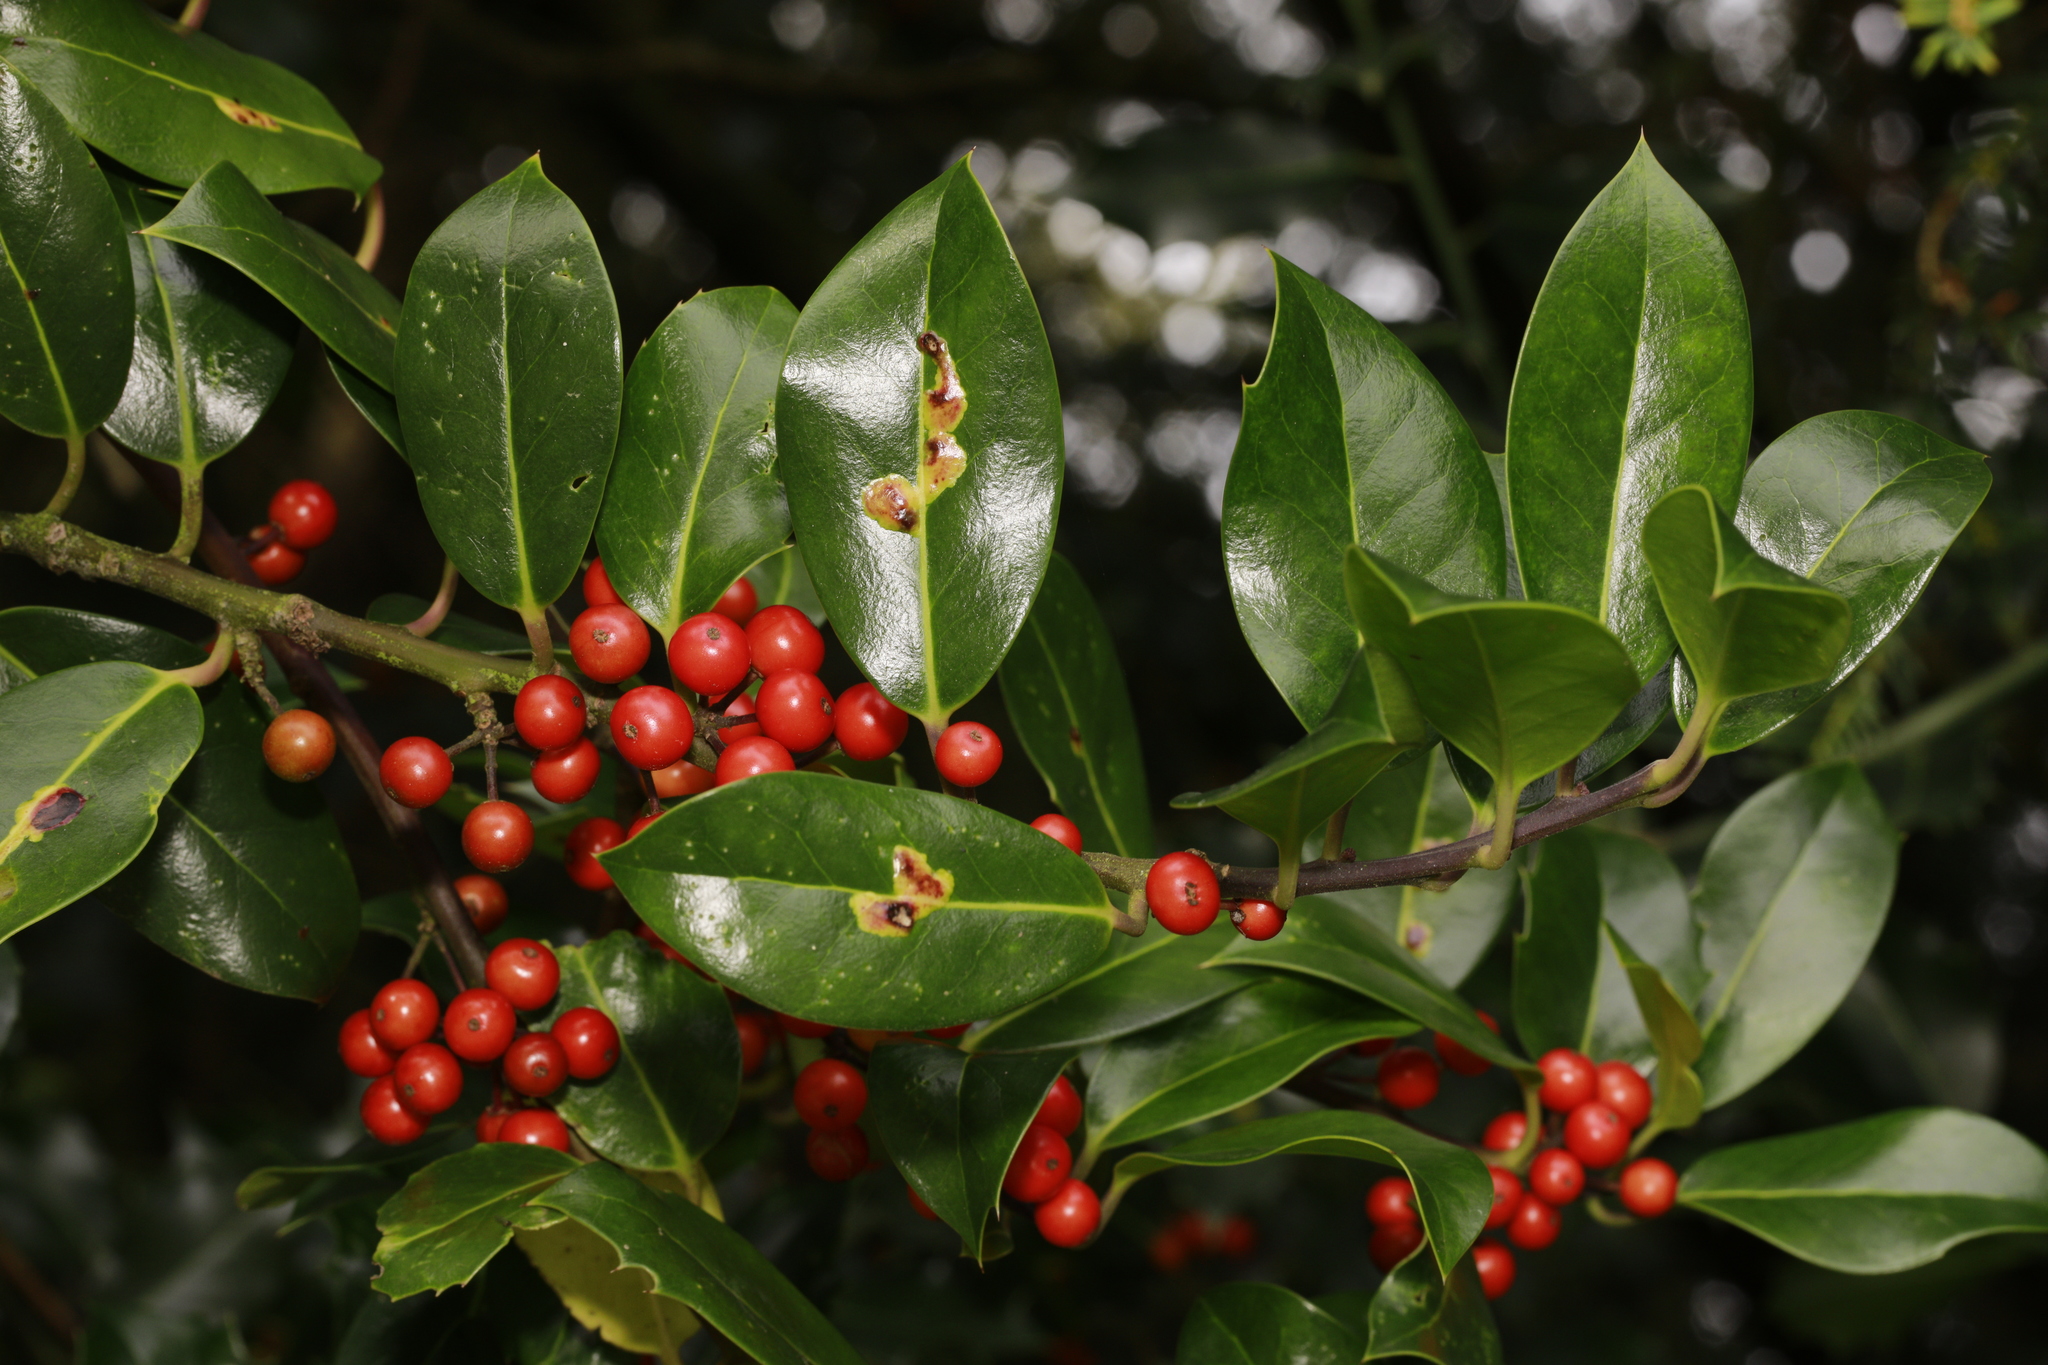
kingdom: Plantae
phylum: Tracheophyta
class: Magnoliopsida
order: Aquifoliales
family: Aquifoliaceae
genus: Ilex
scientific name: Ilex aquifolium
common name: English holly
